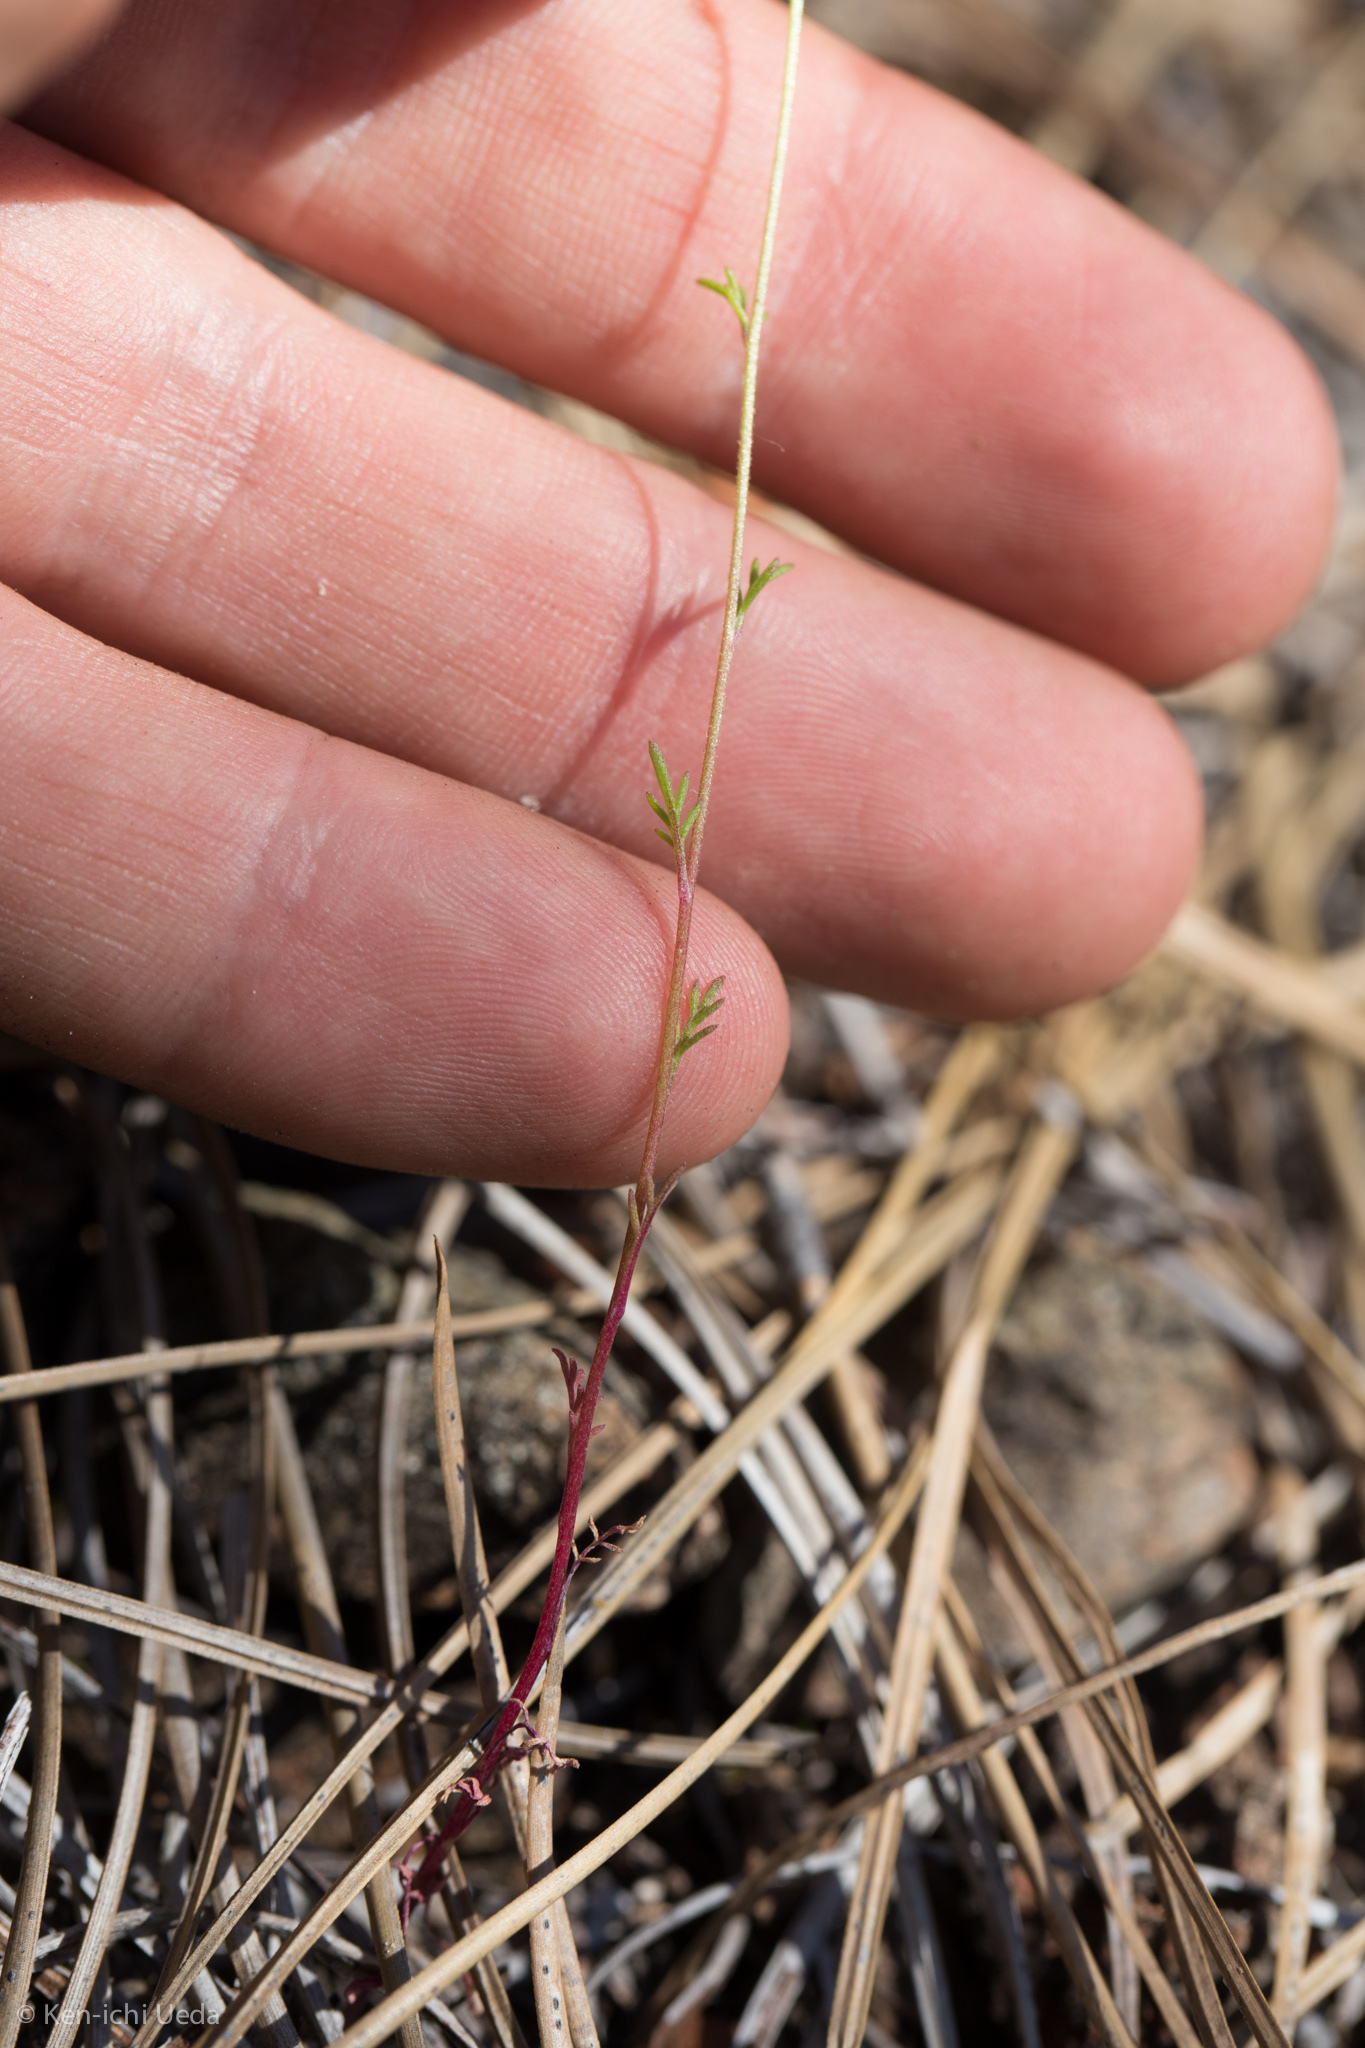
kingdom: Plantae
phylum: Tracheophyta
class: Magnoliopsida
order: Ericales
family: Polemoniaceae
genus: Gilia
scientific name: Gilia capitata
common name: Bluehead gilia
